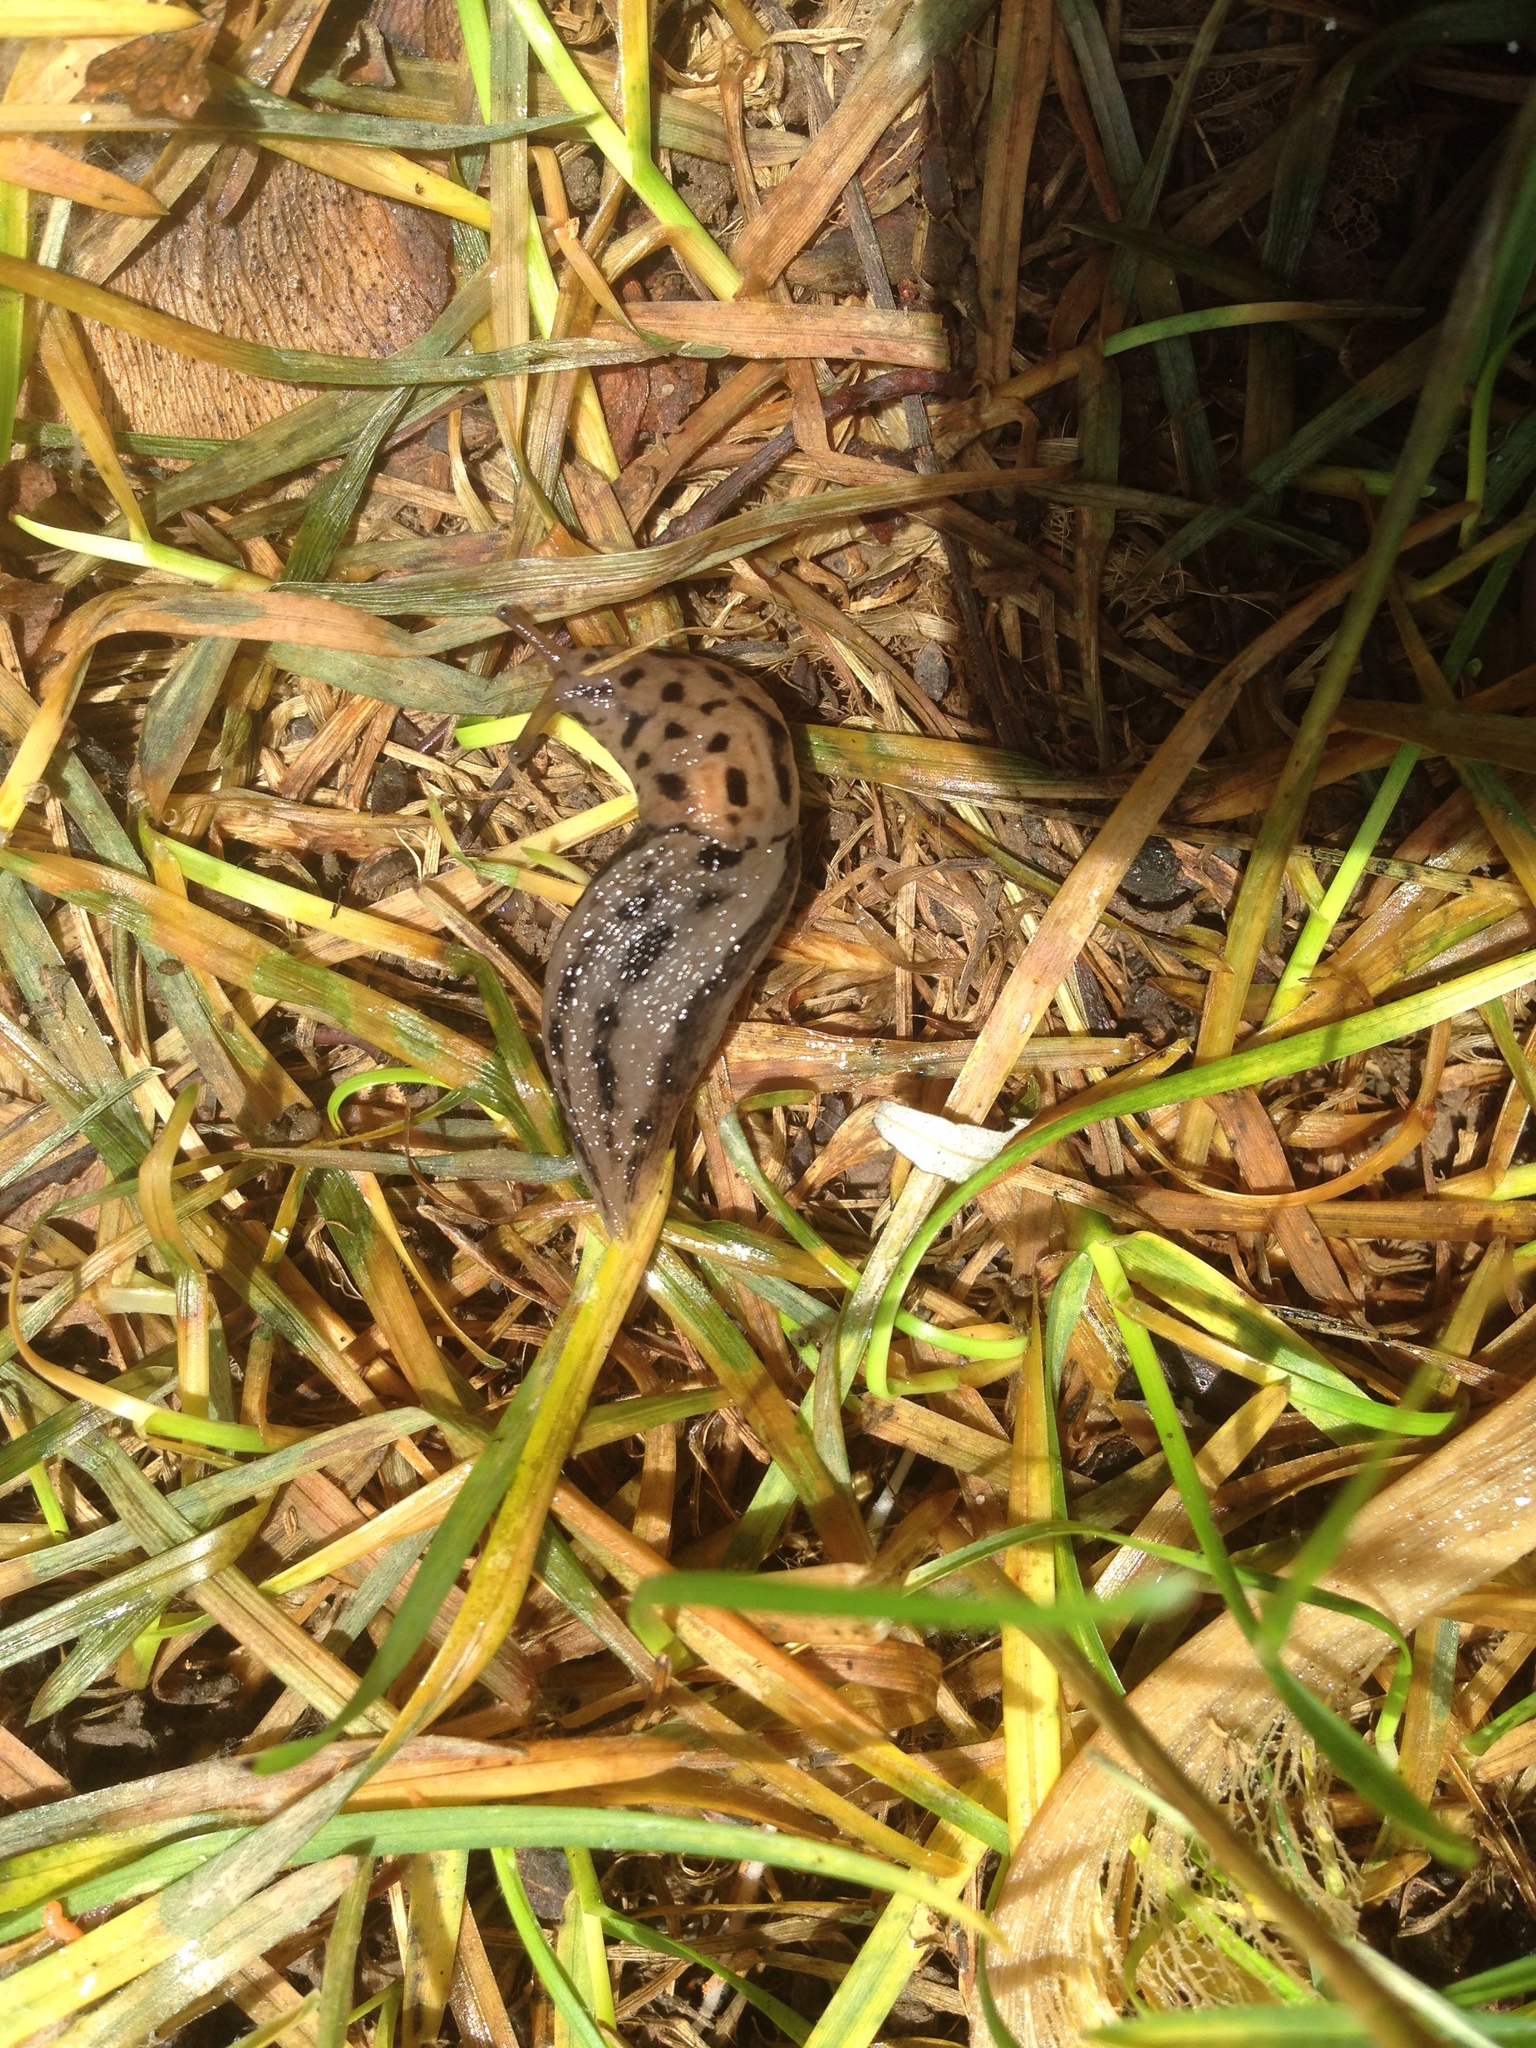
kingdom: Animalia
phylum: Mollusca
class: Gastropoda
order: Stylommatophora
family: Limacidae
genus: Limax
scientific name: Limax maximus
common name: Great grey slug
